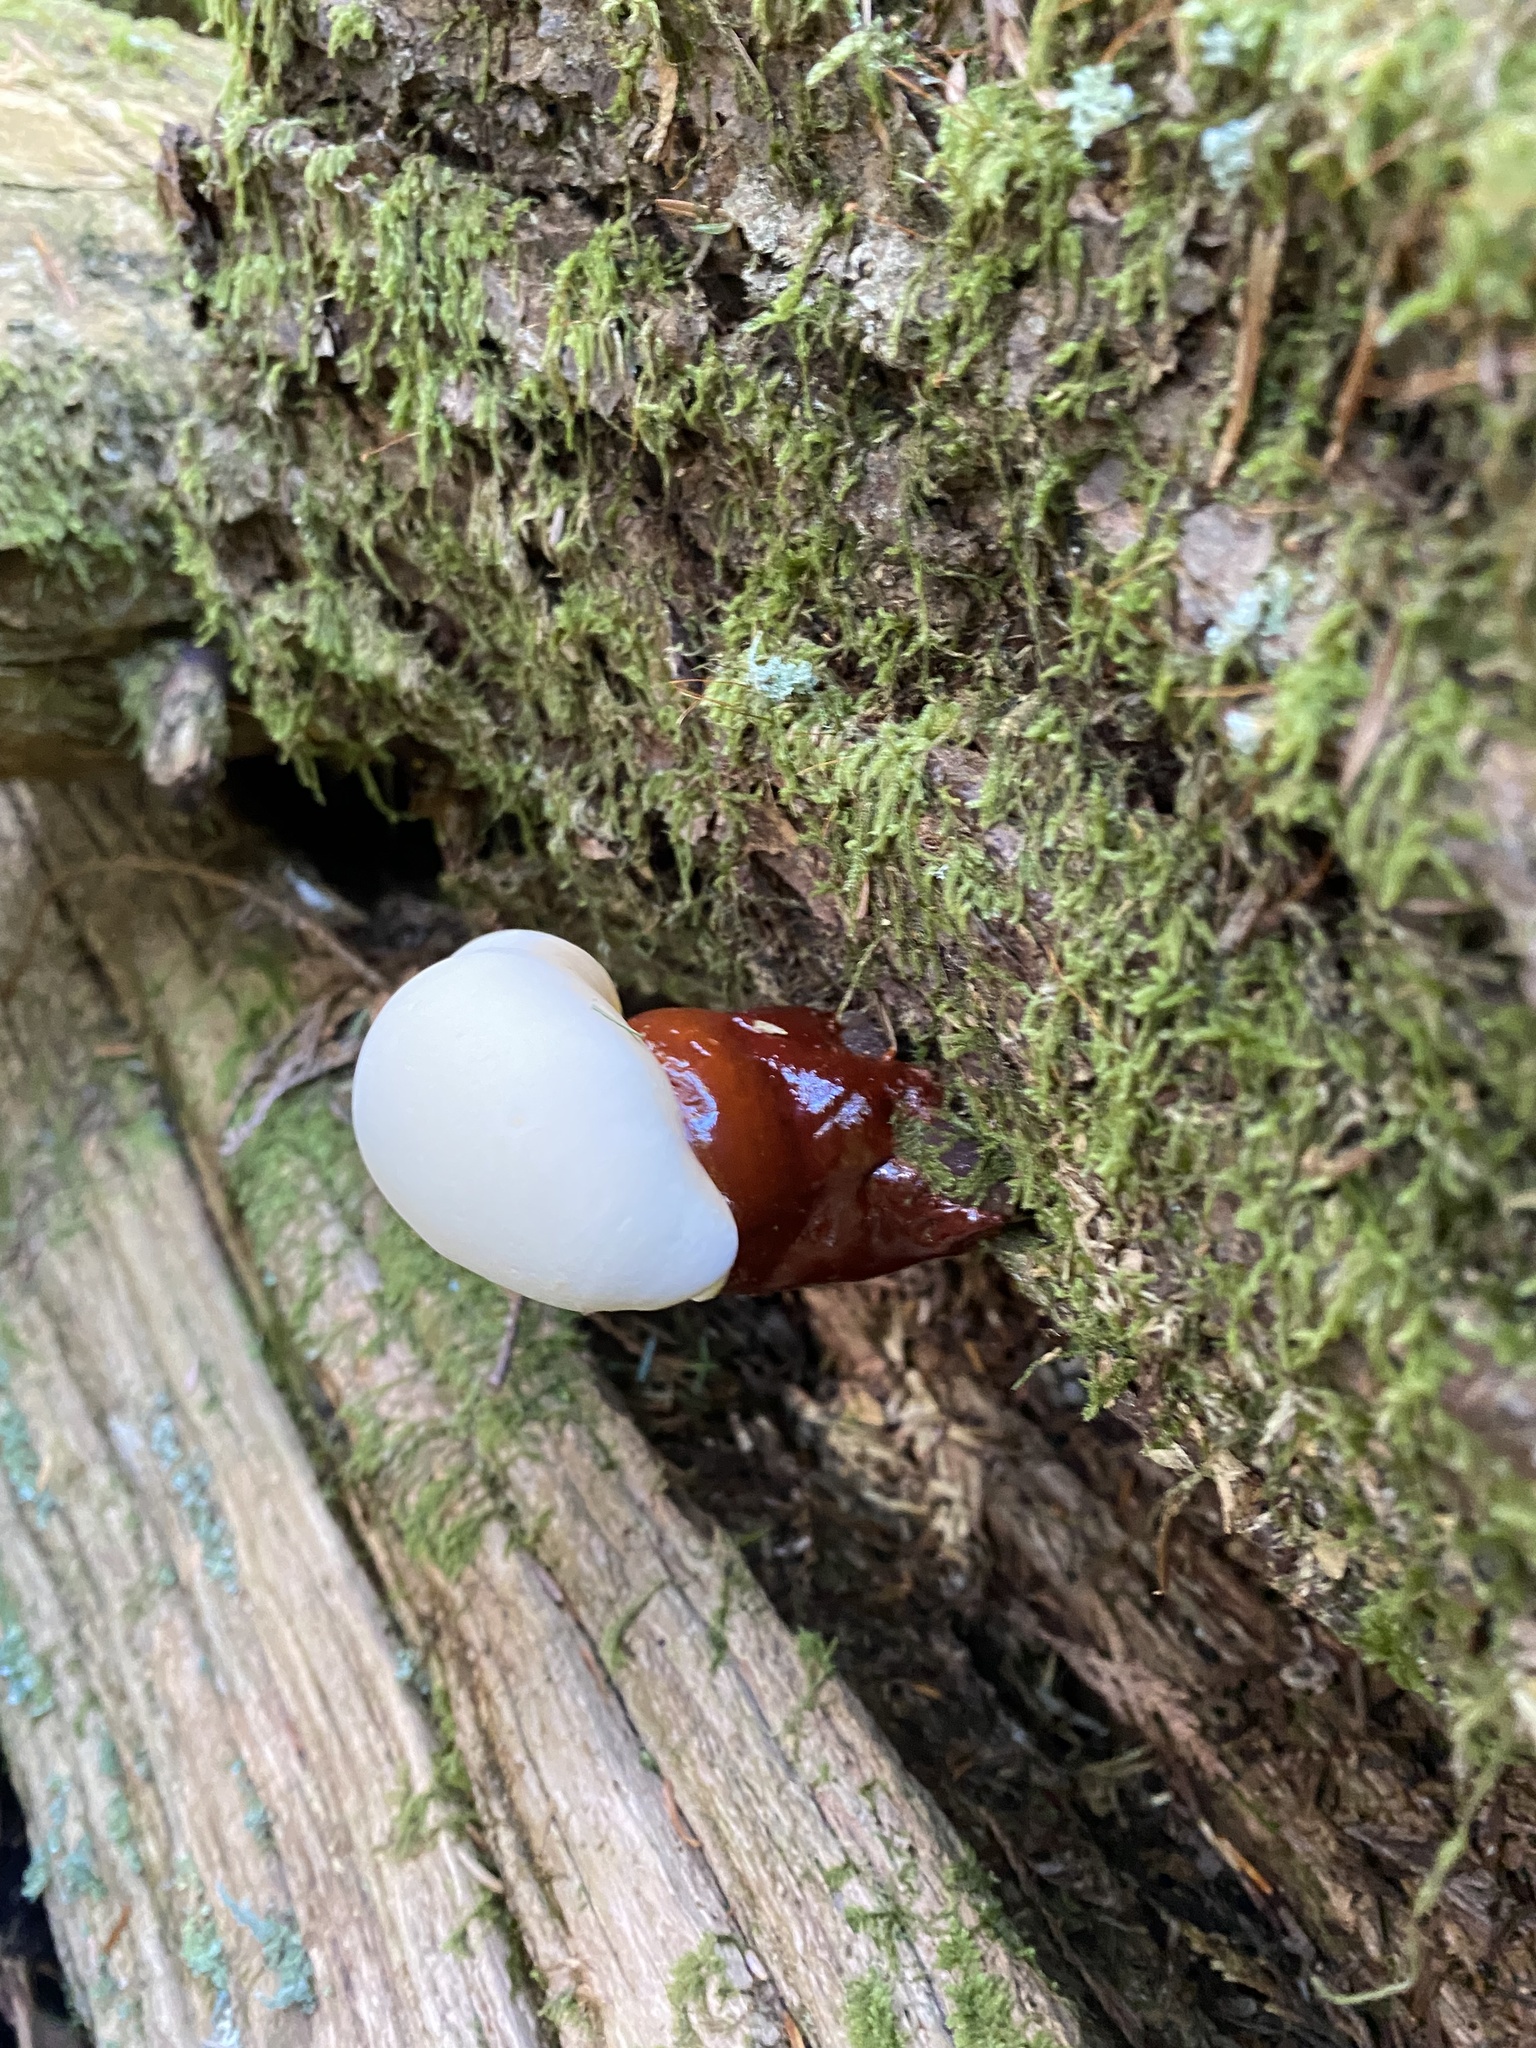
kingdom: Fungi
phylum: Basidiomycota
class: Agaricomycetes
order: Polyporales
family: Polyporaceae
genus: Ganoderma
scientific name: Ganoderma oregonense
